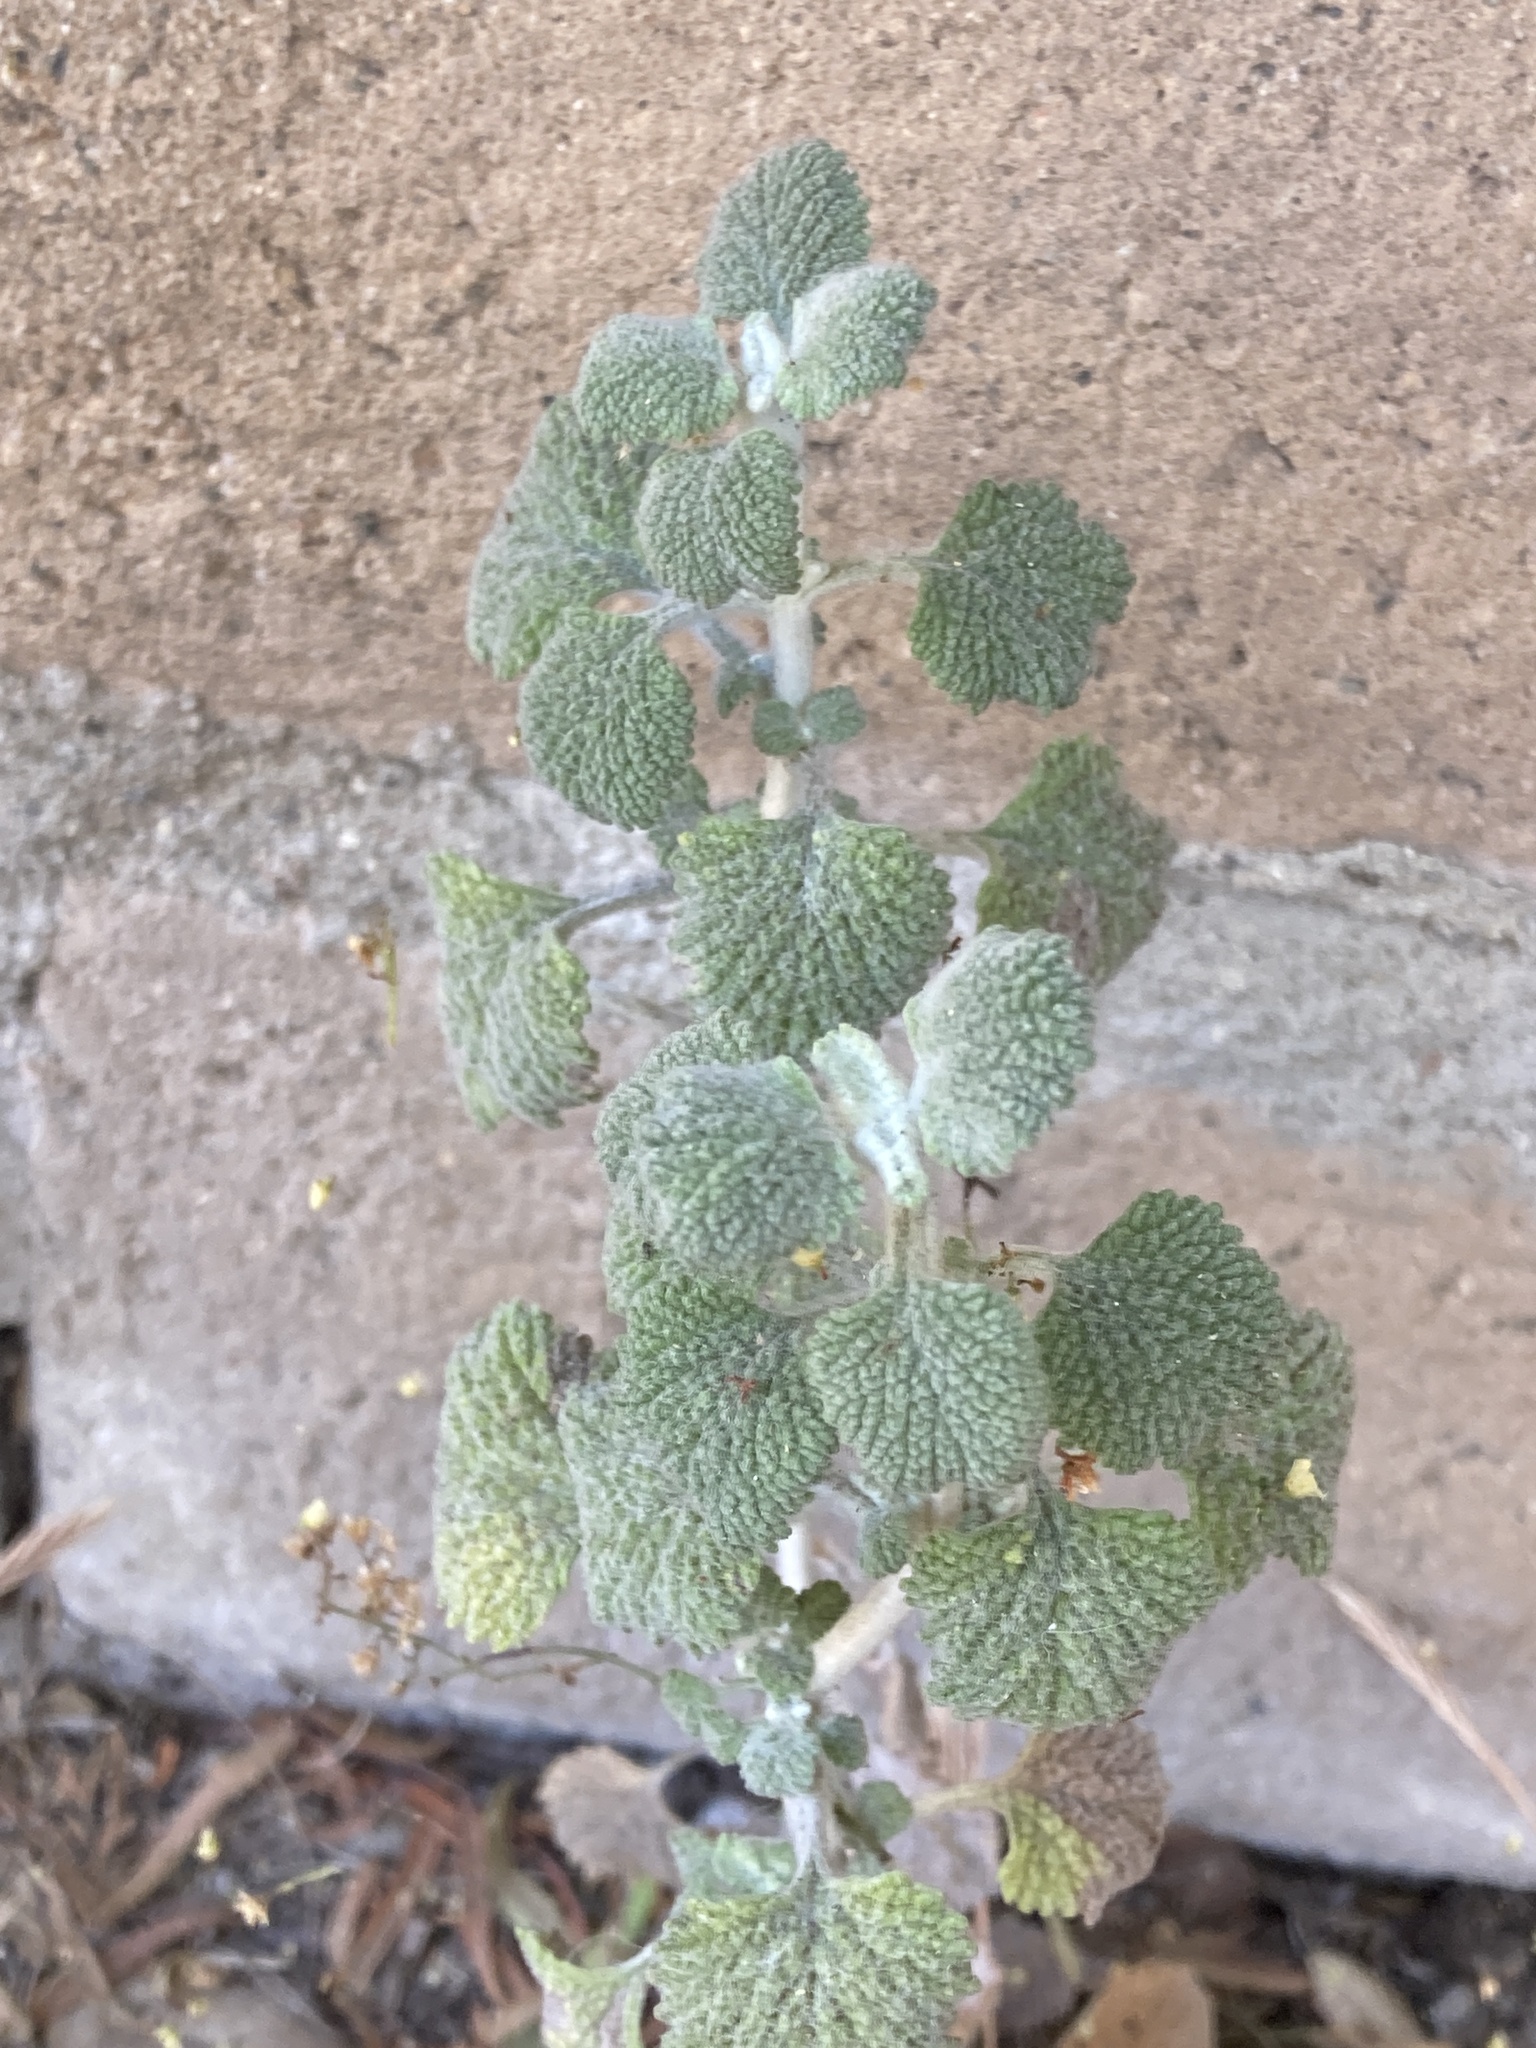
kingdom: Plantae
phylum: Tracheophyta
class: Magnoliopsida
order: Lamiales
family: Lamiaceae
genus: Marrubium
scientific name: Marrubium vulgare
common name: Horehound
